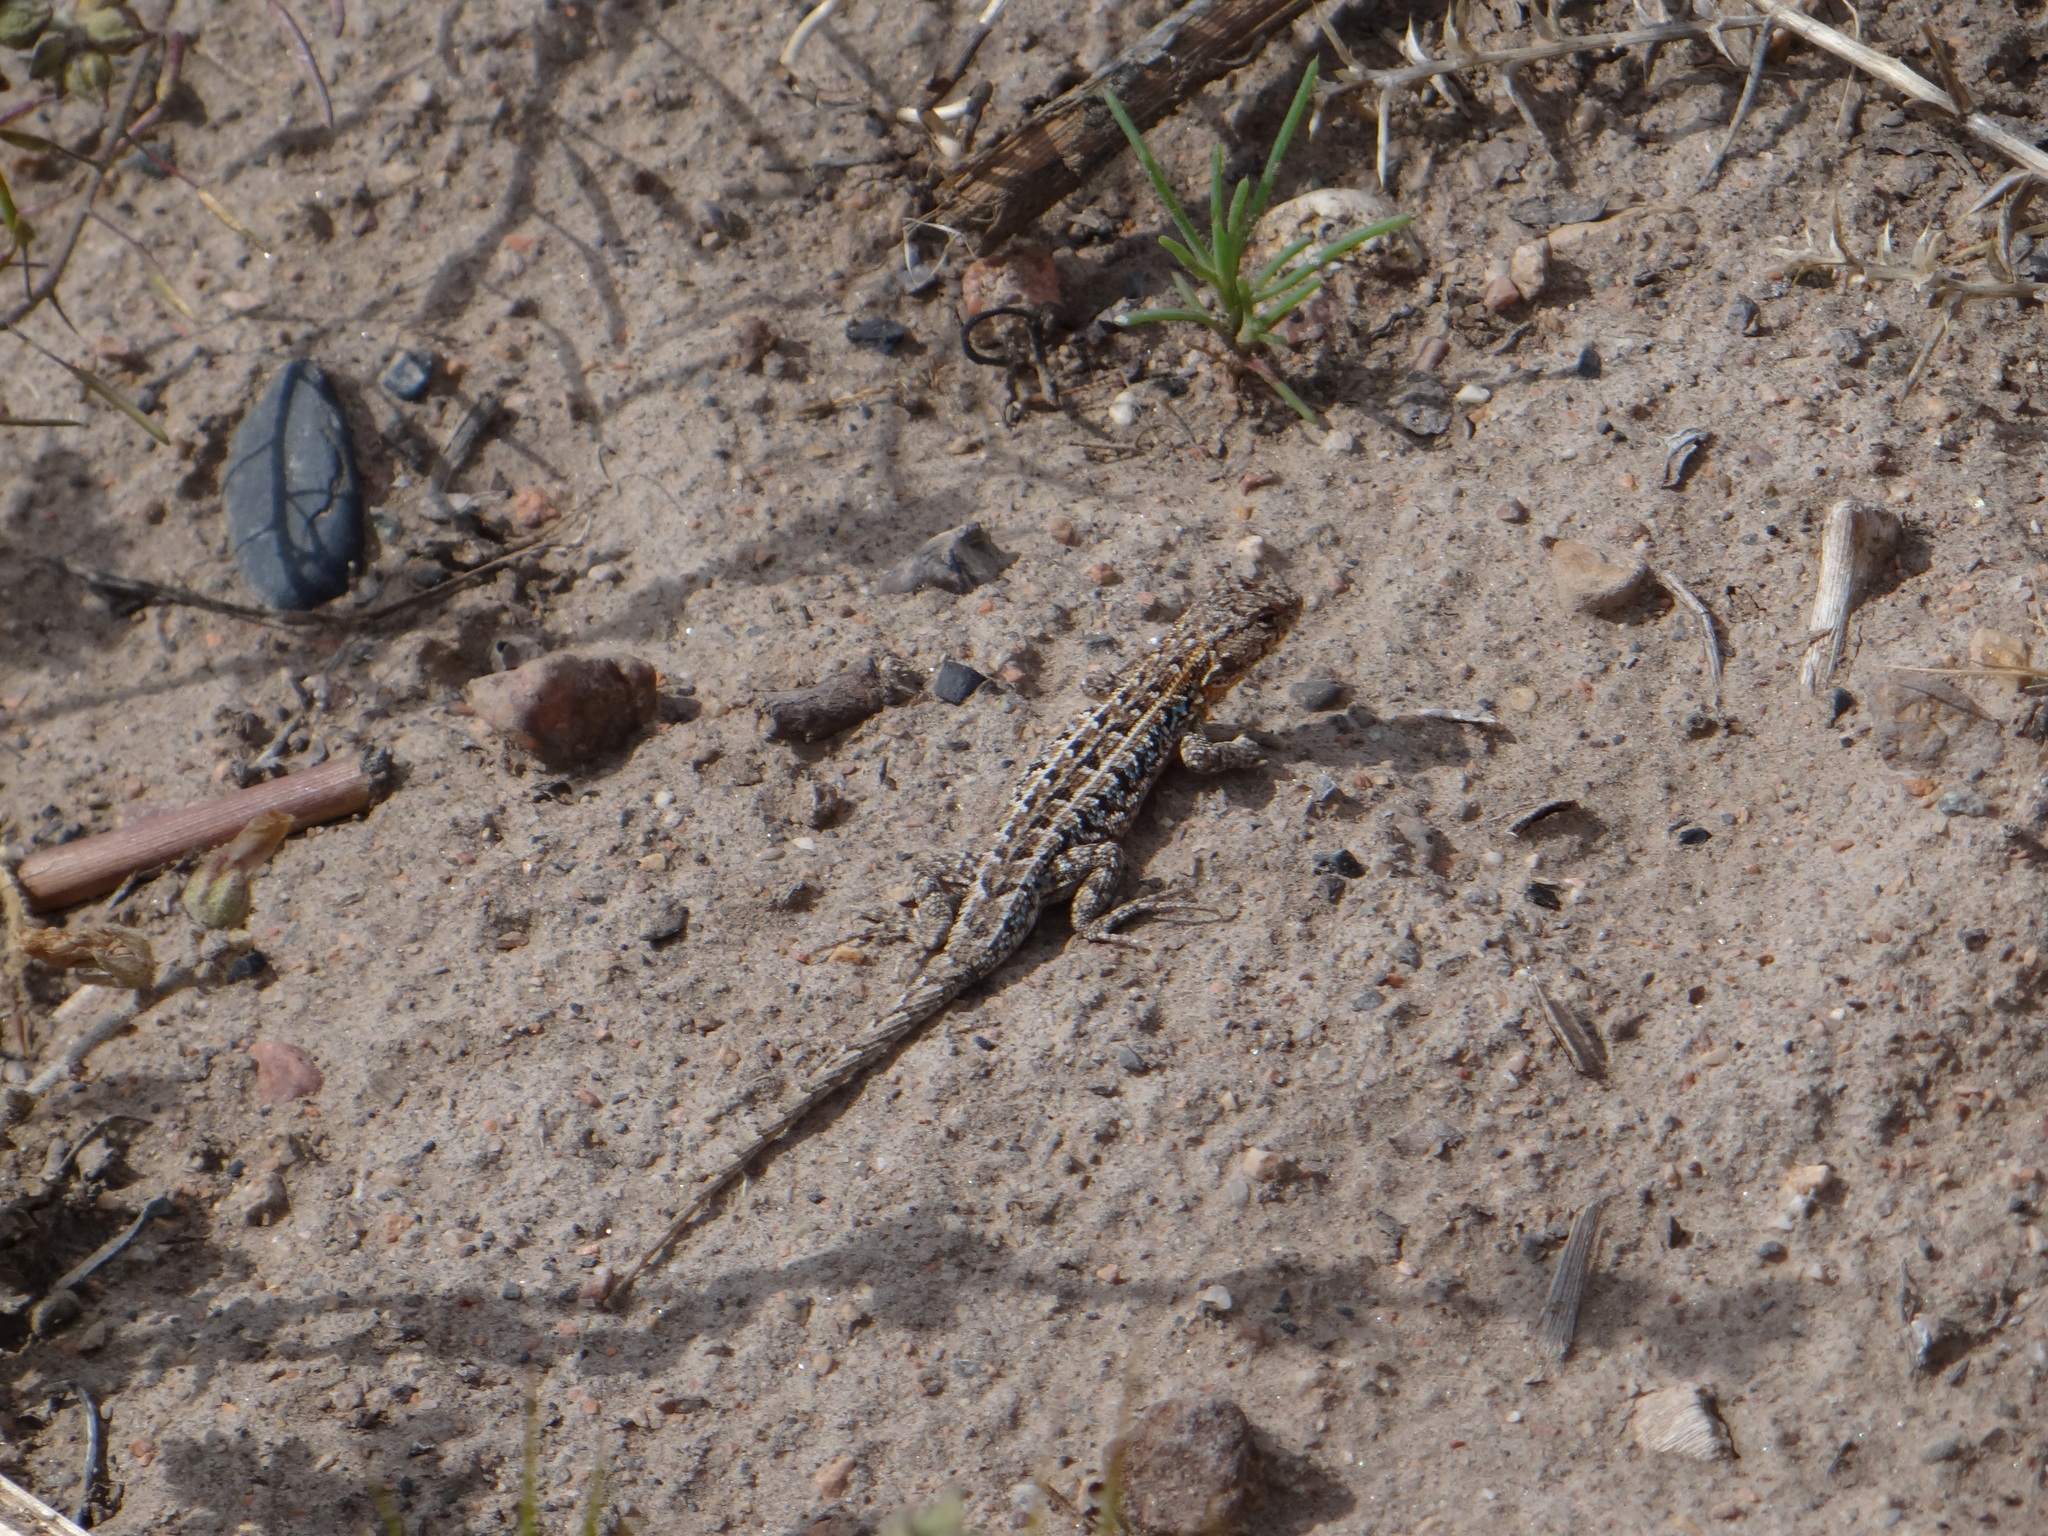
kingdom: Animalia
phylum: Chordata
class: Squamata
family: Liolaemidae
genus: Liolaemus
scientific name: Liolaemus wiegmannii
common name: Wiegmann's tree iguana
